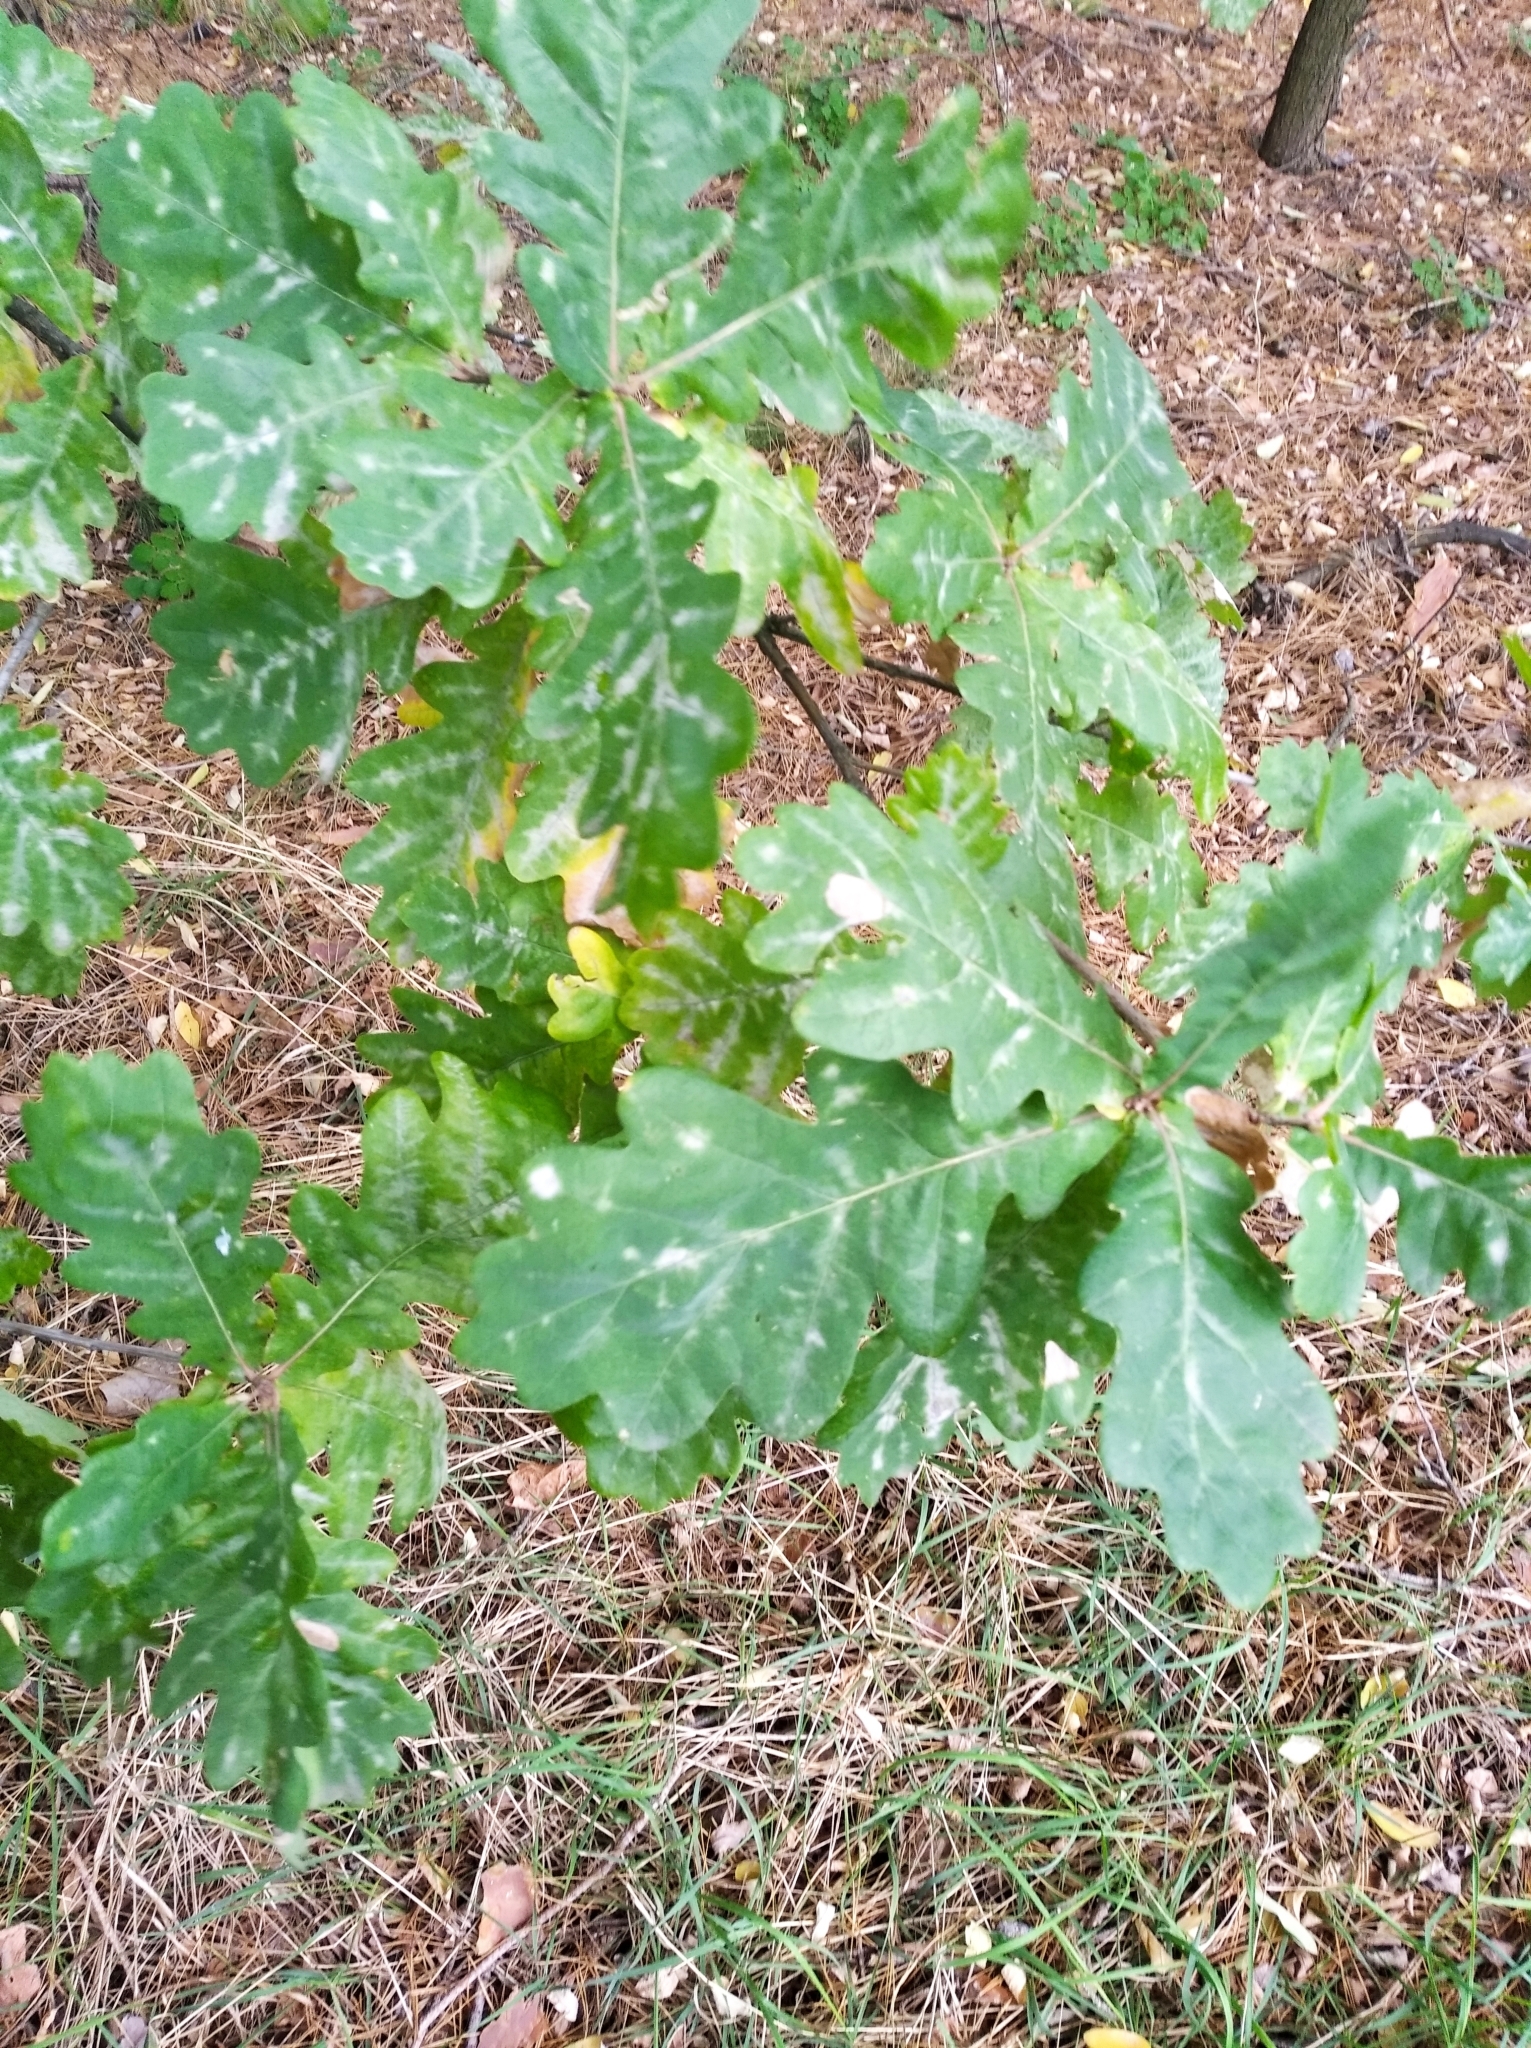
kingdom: Plantae
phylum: Tracheophyta
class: Magnoliopsida
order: Fagales
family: Fagaceae
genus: Quercus
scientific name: Quercus robur
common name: Pedunculate oak
